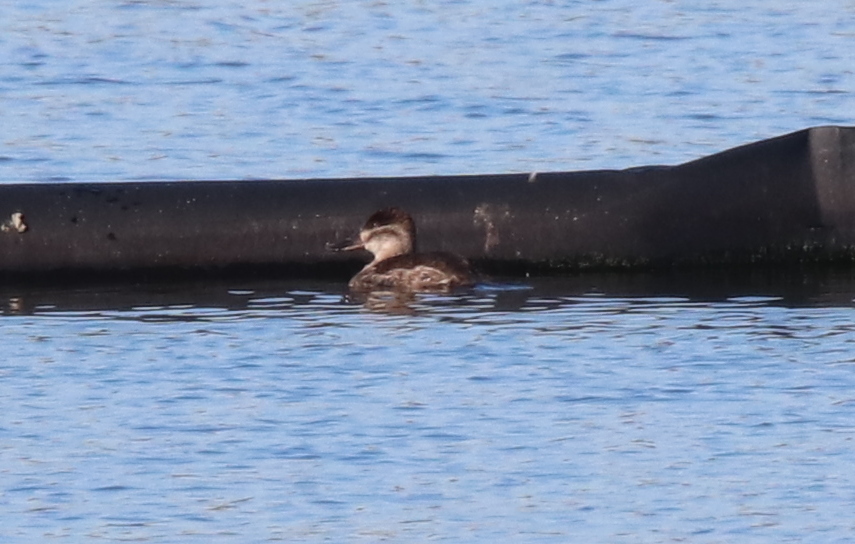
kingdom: Animalia
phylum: Chordata
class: Aves
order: Anseriformes
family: Anatidae
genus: Oxyura
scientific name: Oxyura jamaicensis
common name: Ruddy duck
